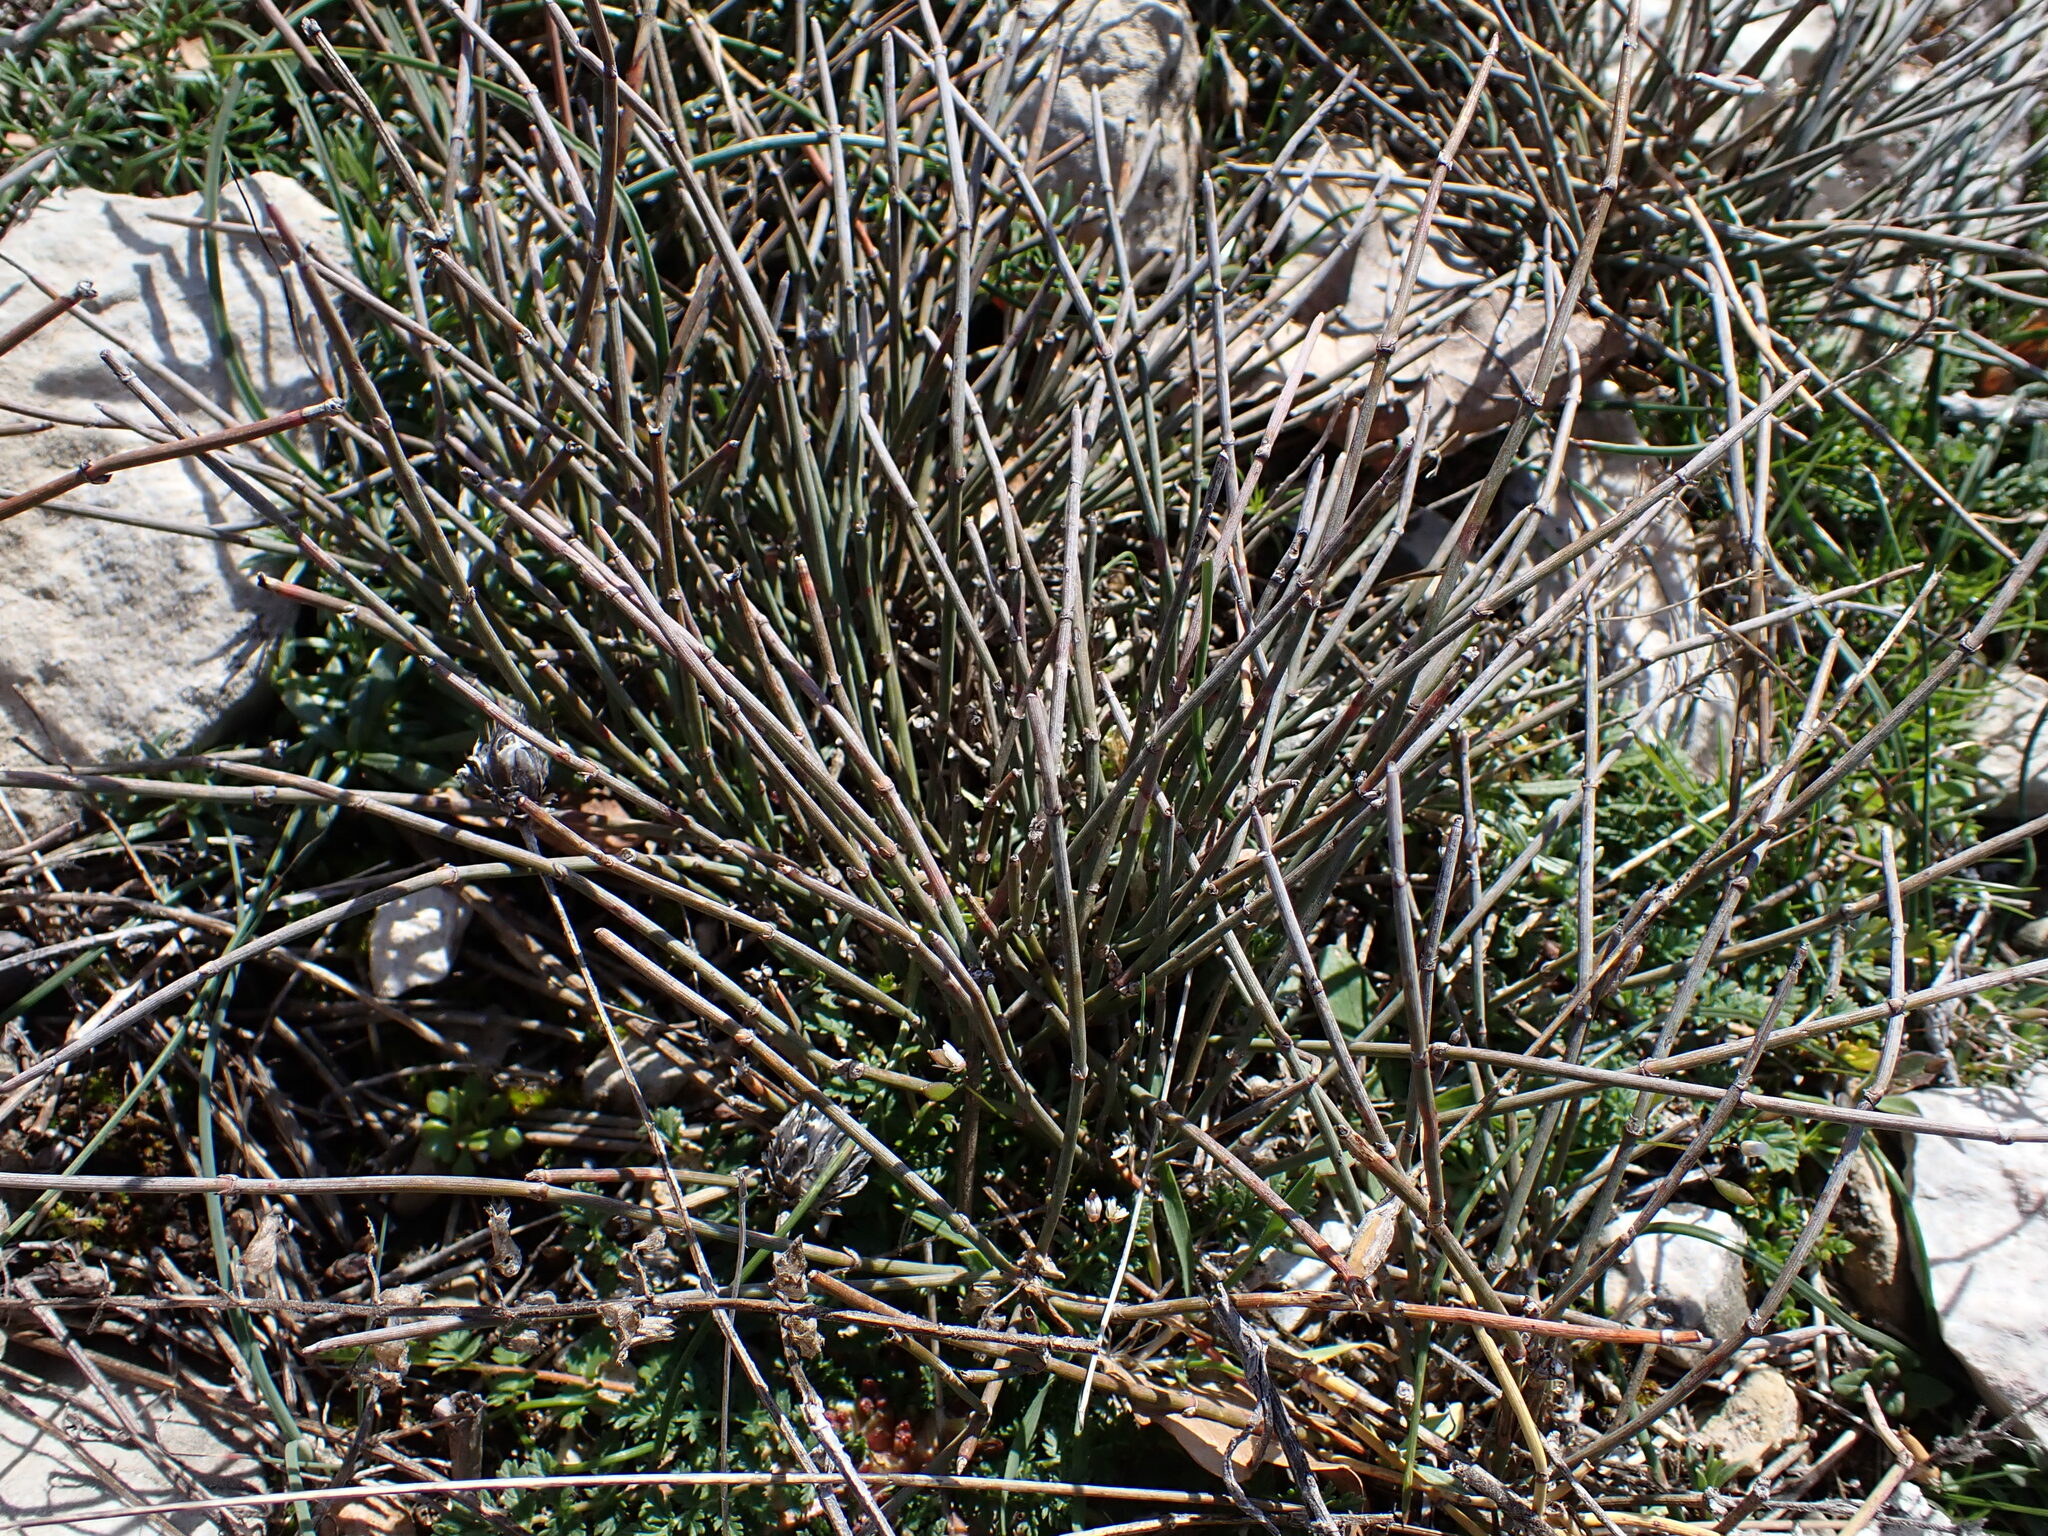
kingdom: Plantae
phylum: Tracheophyta
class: Gnetopsida
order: Ephedrales
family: Ephedraceae
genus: Ephedra
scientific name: Ephedra distachya
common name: Sea grape
